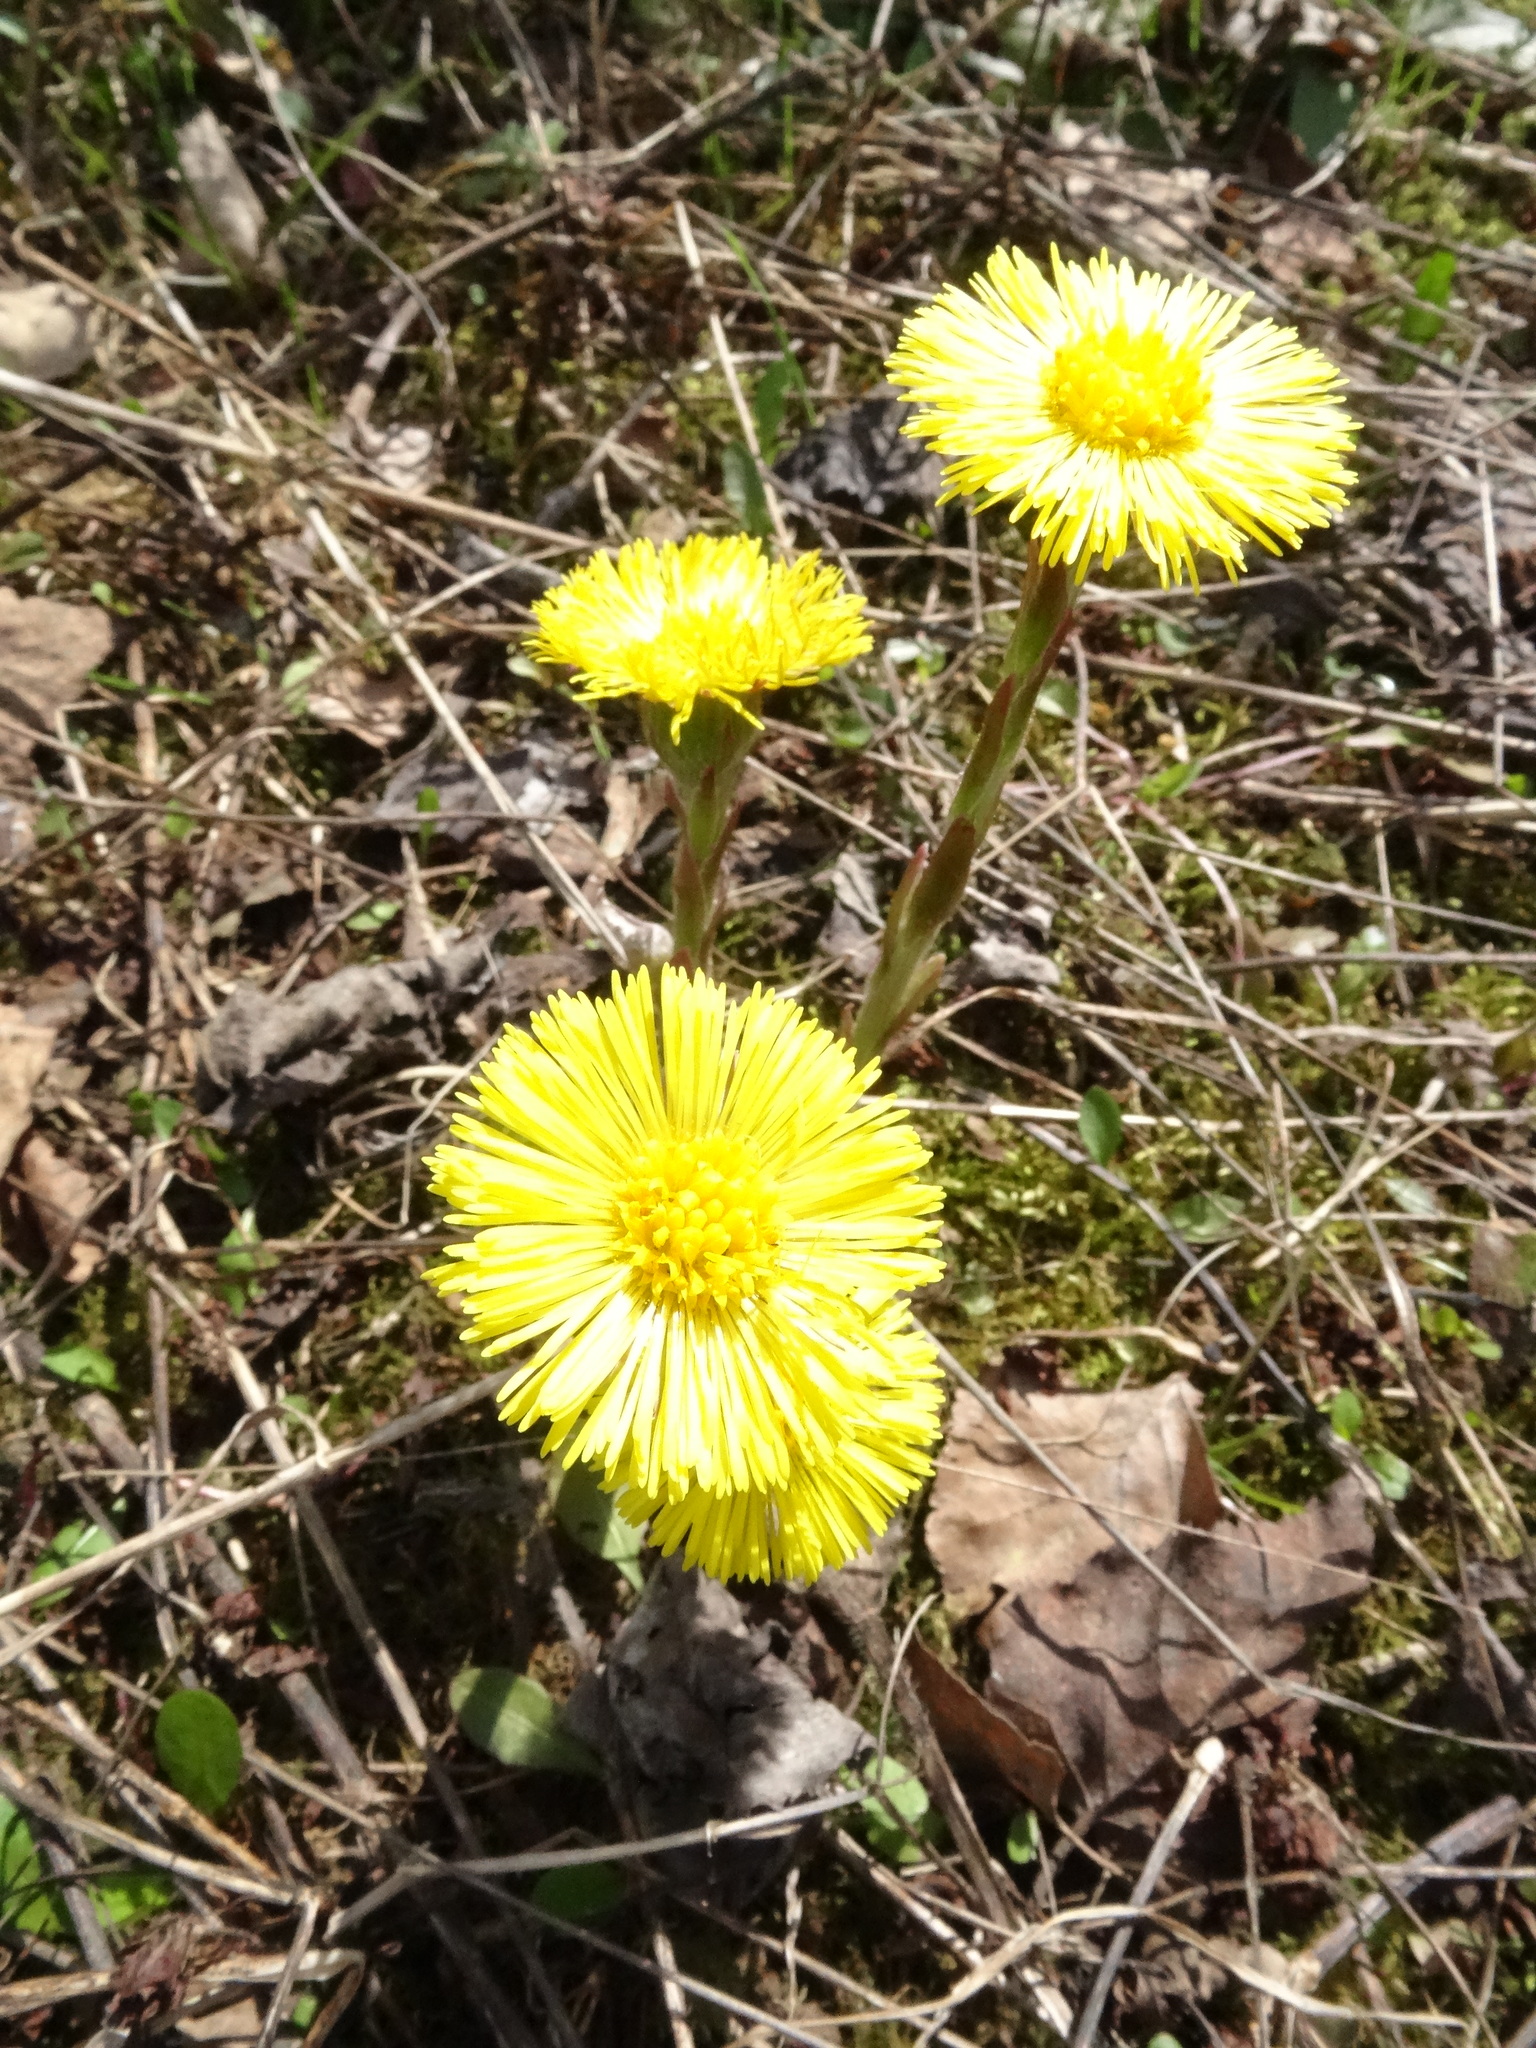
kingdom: Plantae
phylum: Tracheophyta
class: Magnoliopsida
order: Asterales
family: Asteraceae
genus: Tussilago
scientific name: Tussilago farfara
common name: Coltsfoot
